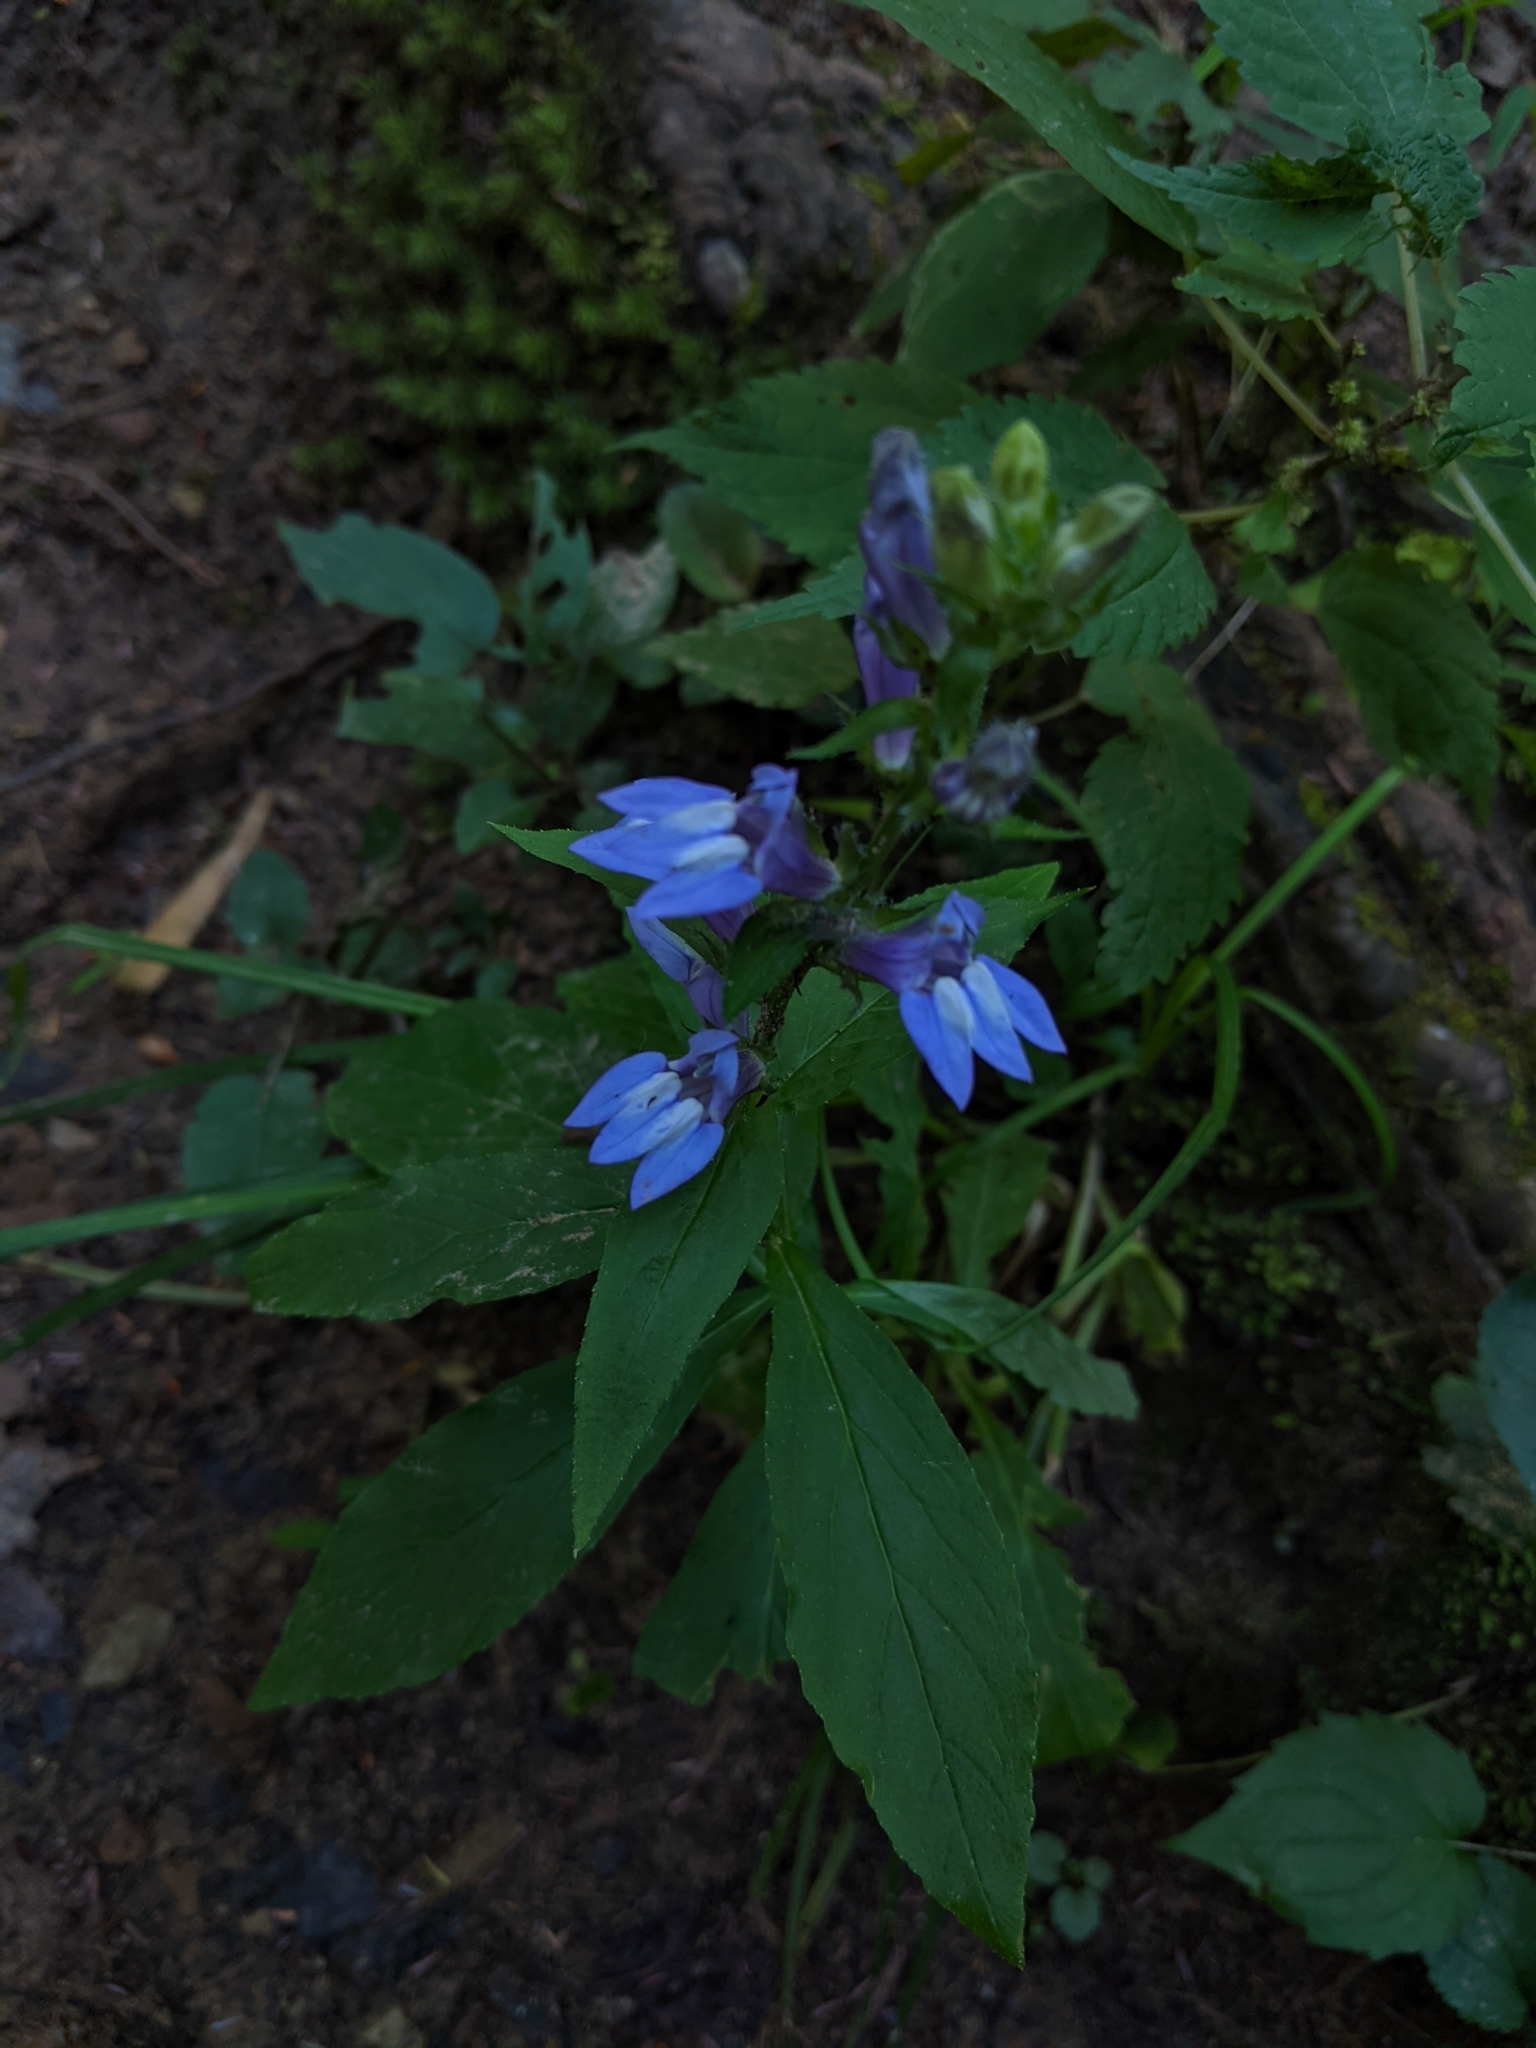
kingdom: Plantae
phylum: Tracheophyta
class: Magnoliopsida
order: Asterales
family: Campanulaceae
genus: Lobelia
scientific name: Lobelia siphilitica
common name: Great lobelia
